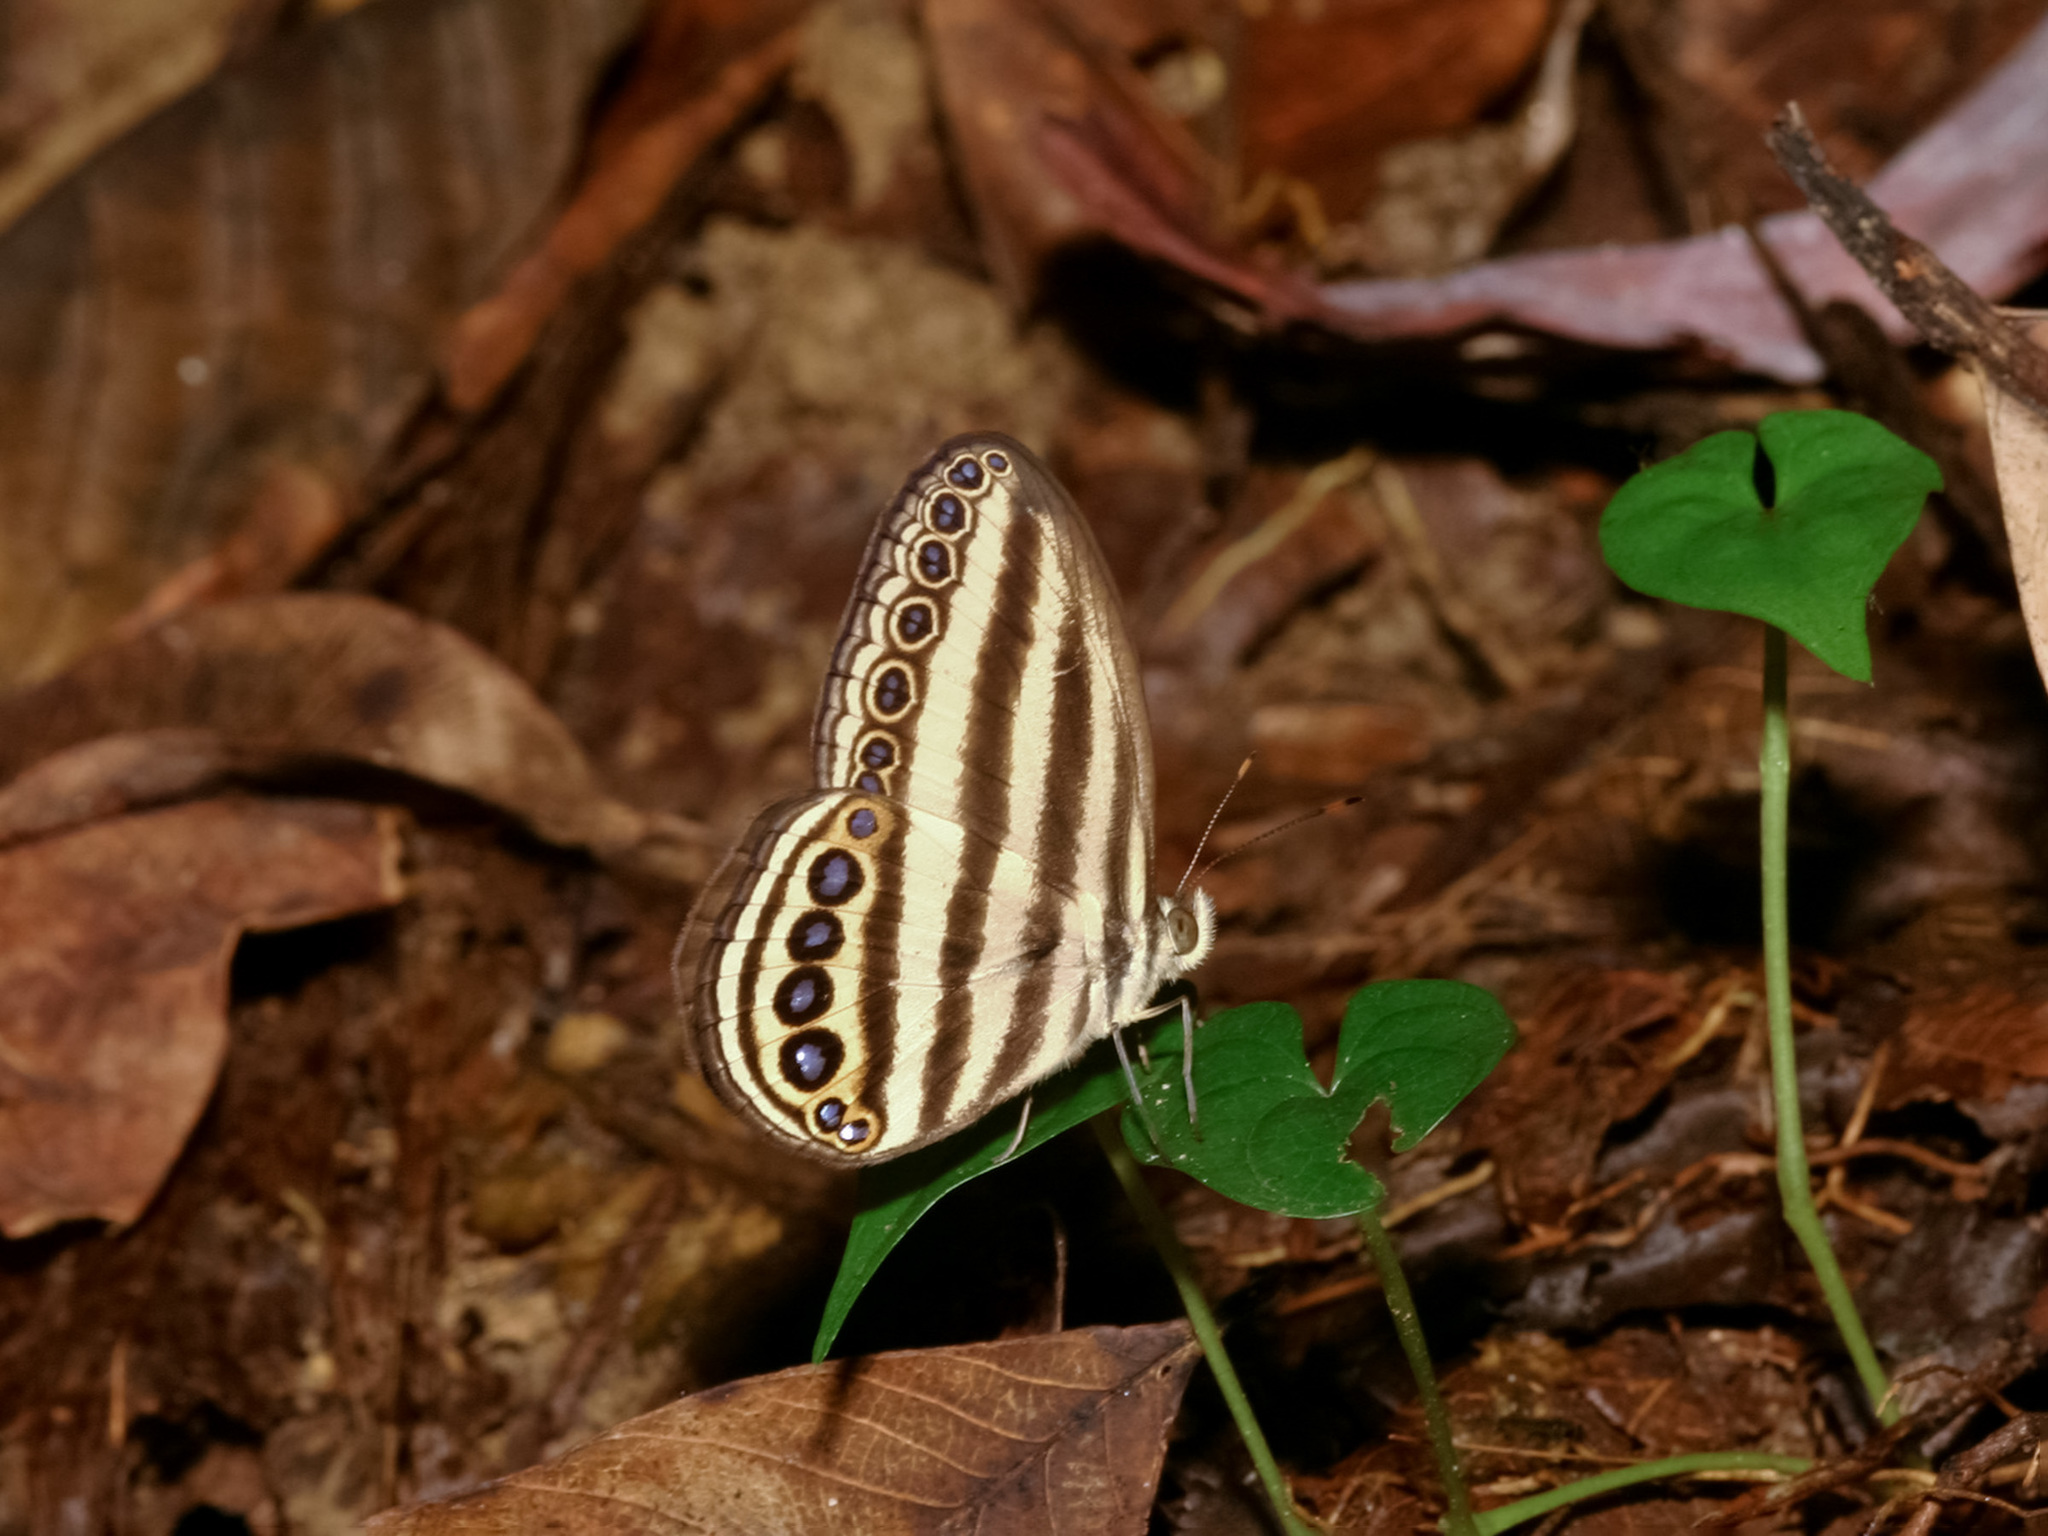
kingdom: Animalia
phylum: Arthropoda
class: Insecta
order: Lepidoptera
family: Nymphalidae
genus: Ragadia
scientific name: Ragadia makuta
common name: Striped ringlet
